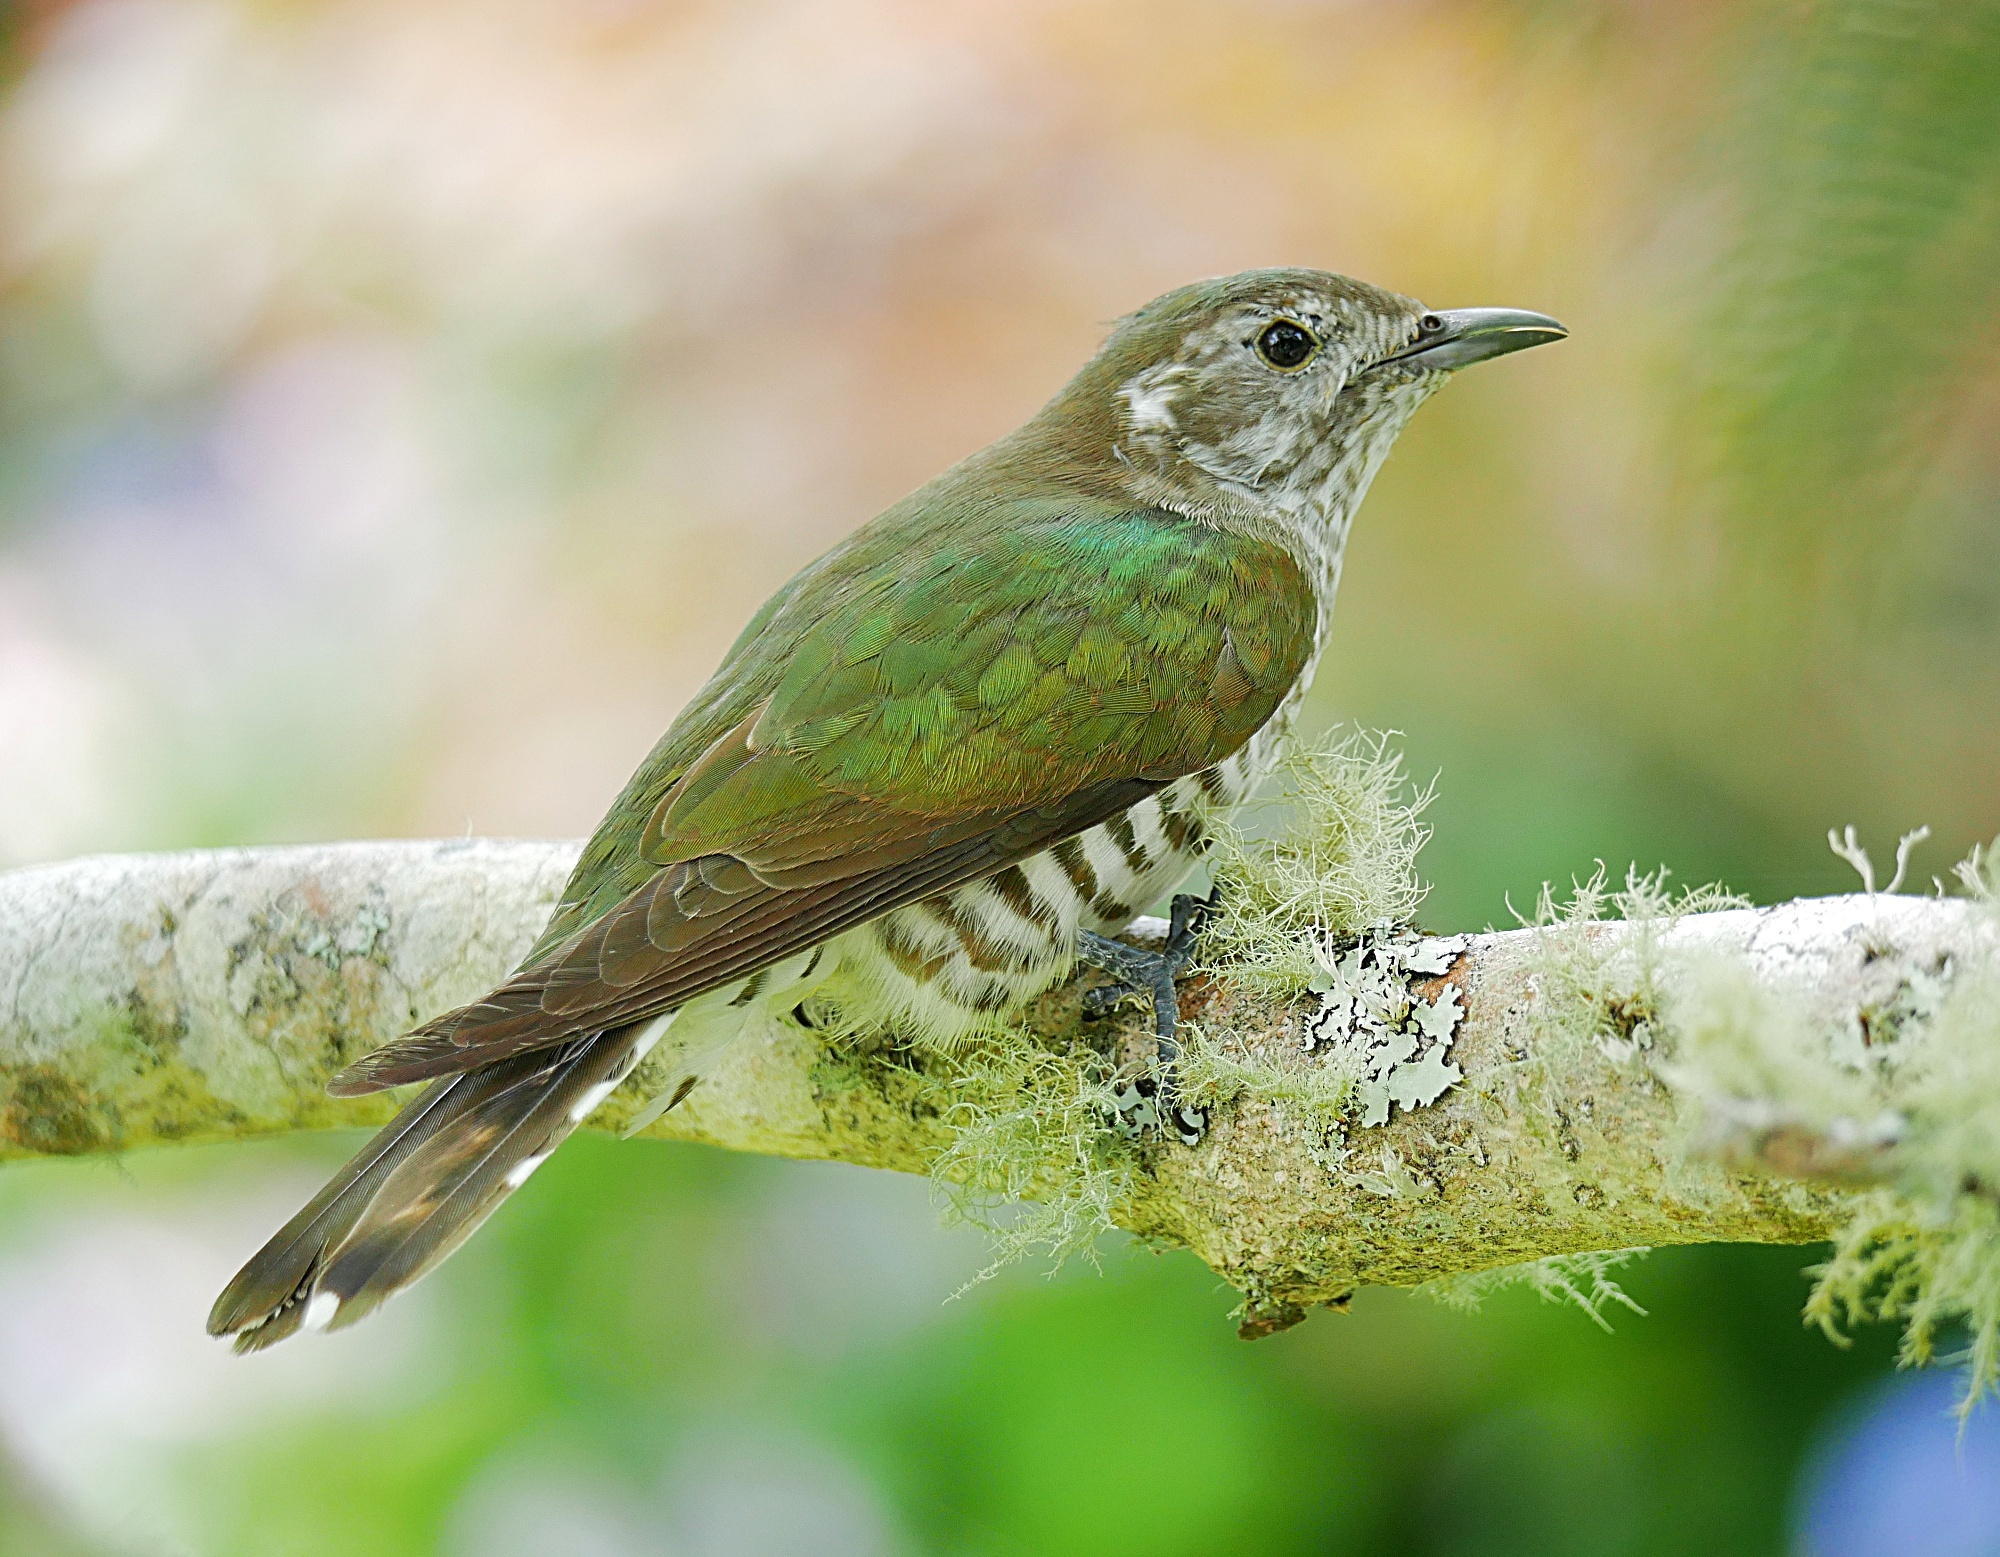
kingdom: Animalia
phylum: Chordata
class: Aves
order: Cuculiformes
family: Cuculidae
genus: Chrysococcyx
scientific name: Chrysococcyx lucidus
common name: Shining bronze cuckoo
